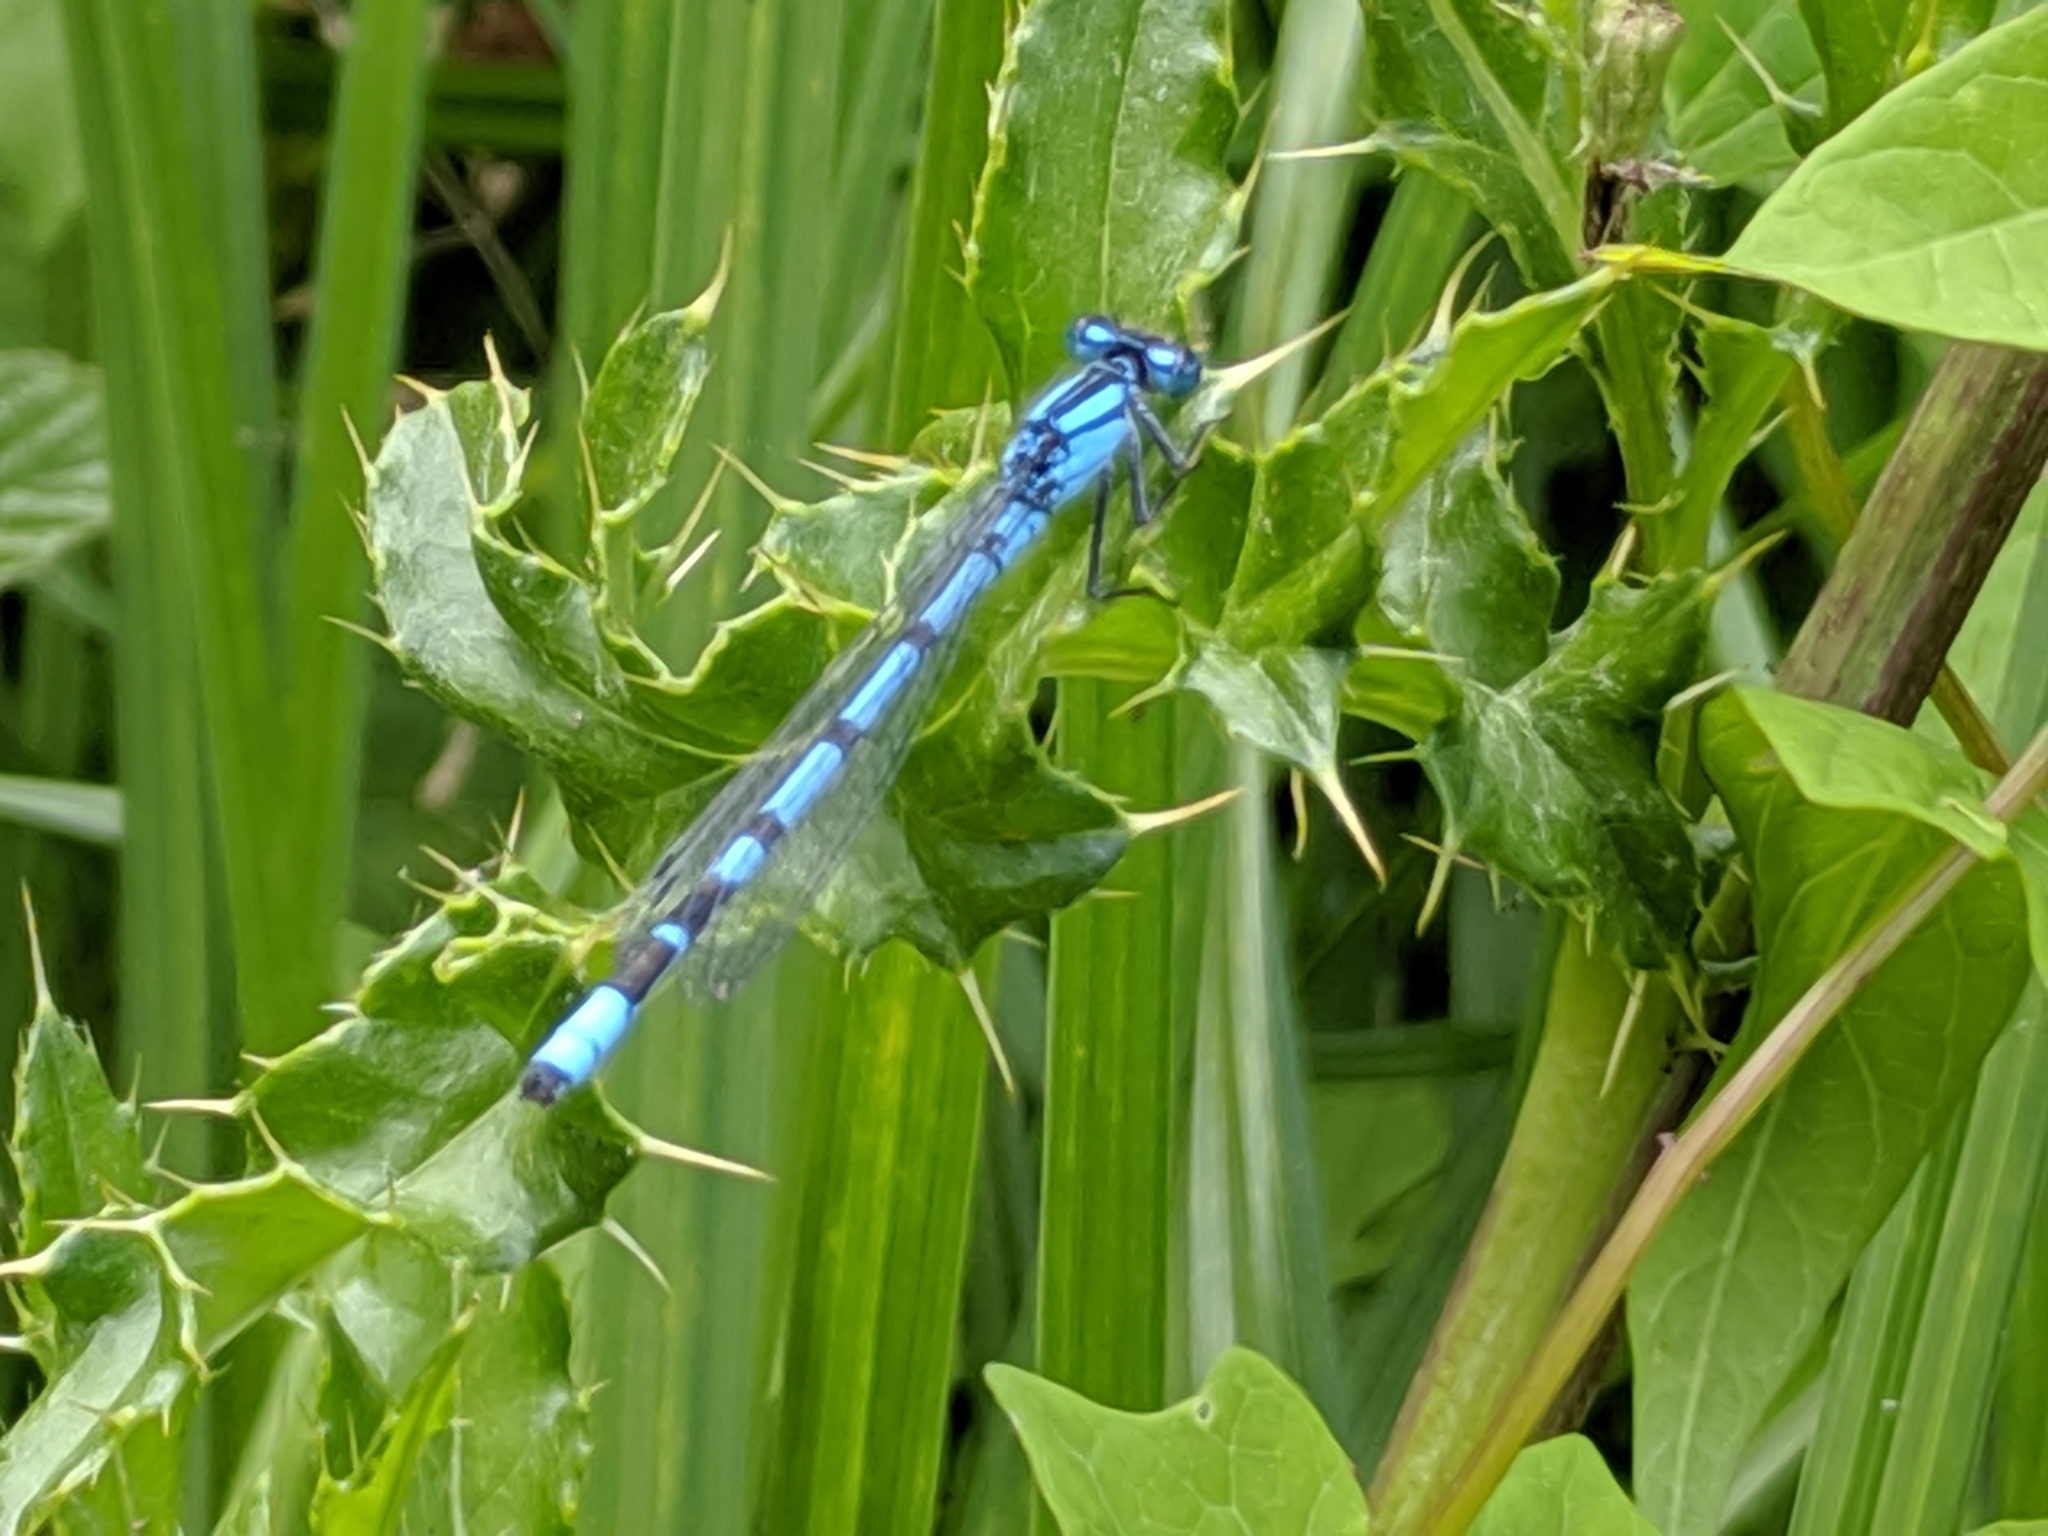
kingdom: Animalia
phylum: Arthropoda
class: Insecta
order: Odonata
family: Coenagrionidae
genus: Enallagma
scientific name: Enallagma cyathigerum
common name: Common blue damselfly
